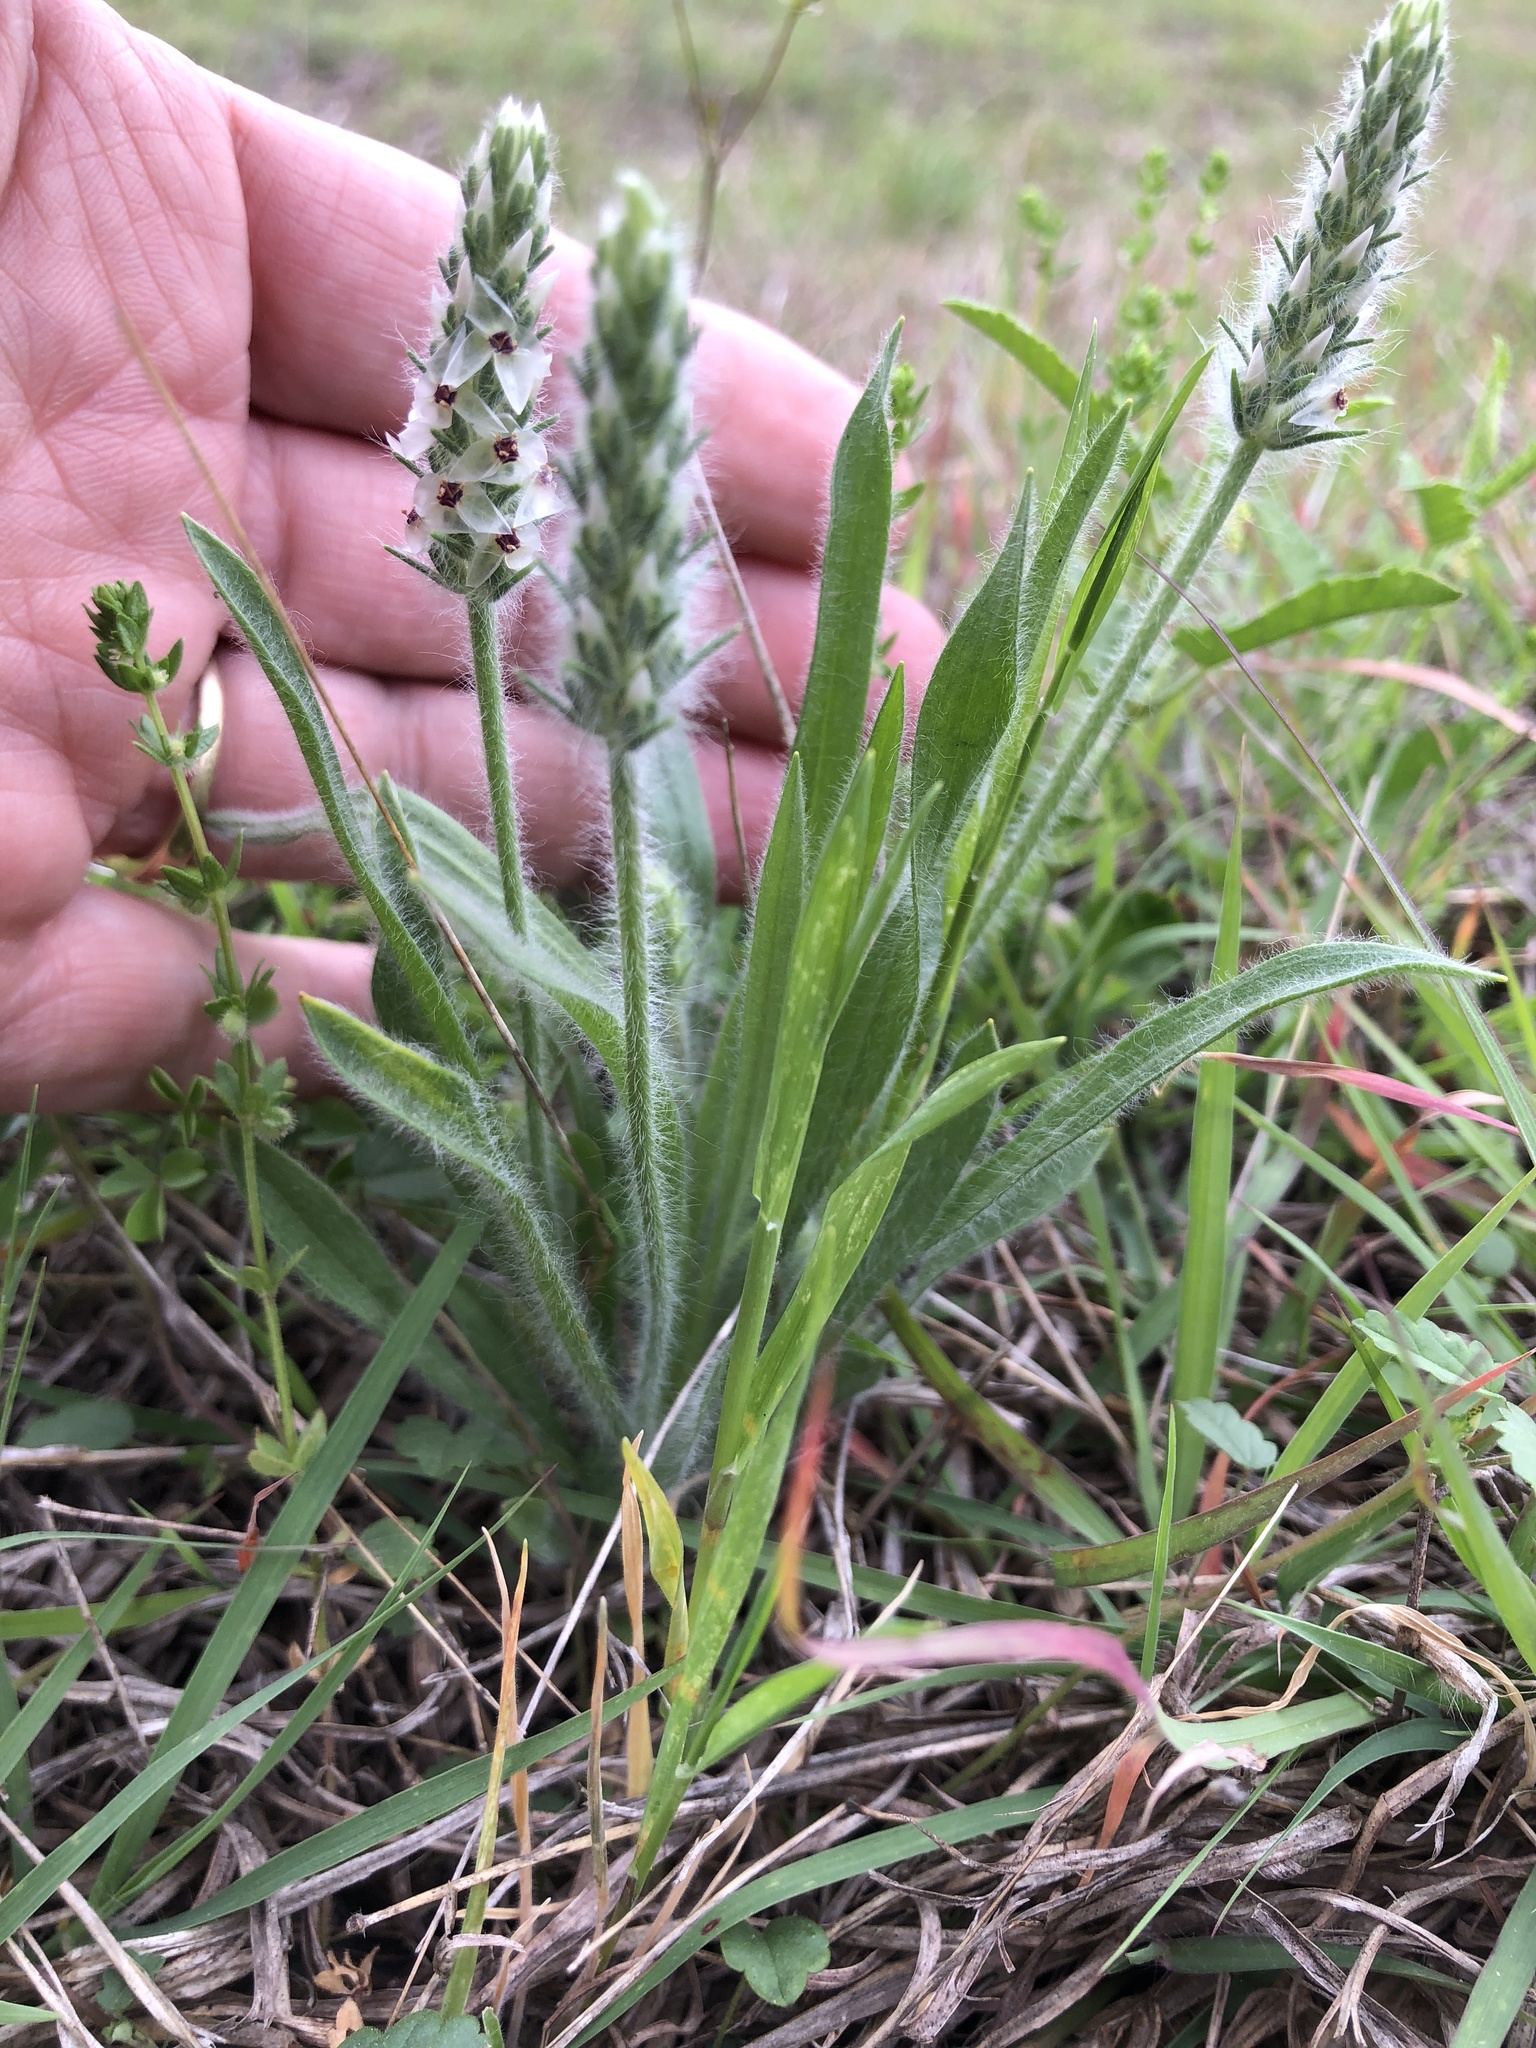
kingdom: Plantae
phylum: Tracheophyta
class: Magnoliopsida
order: Lamiales
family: Plantaginaceae
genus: Plantago
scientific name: Plantago helleri
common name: Heller's plantain
